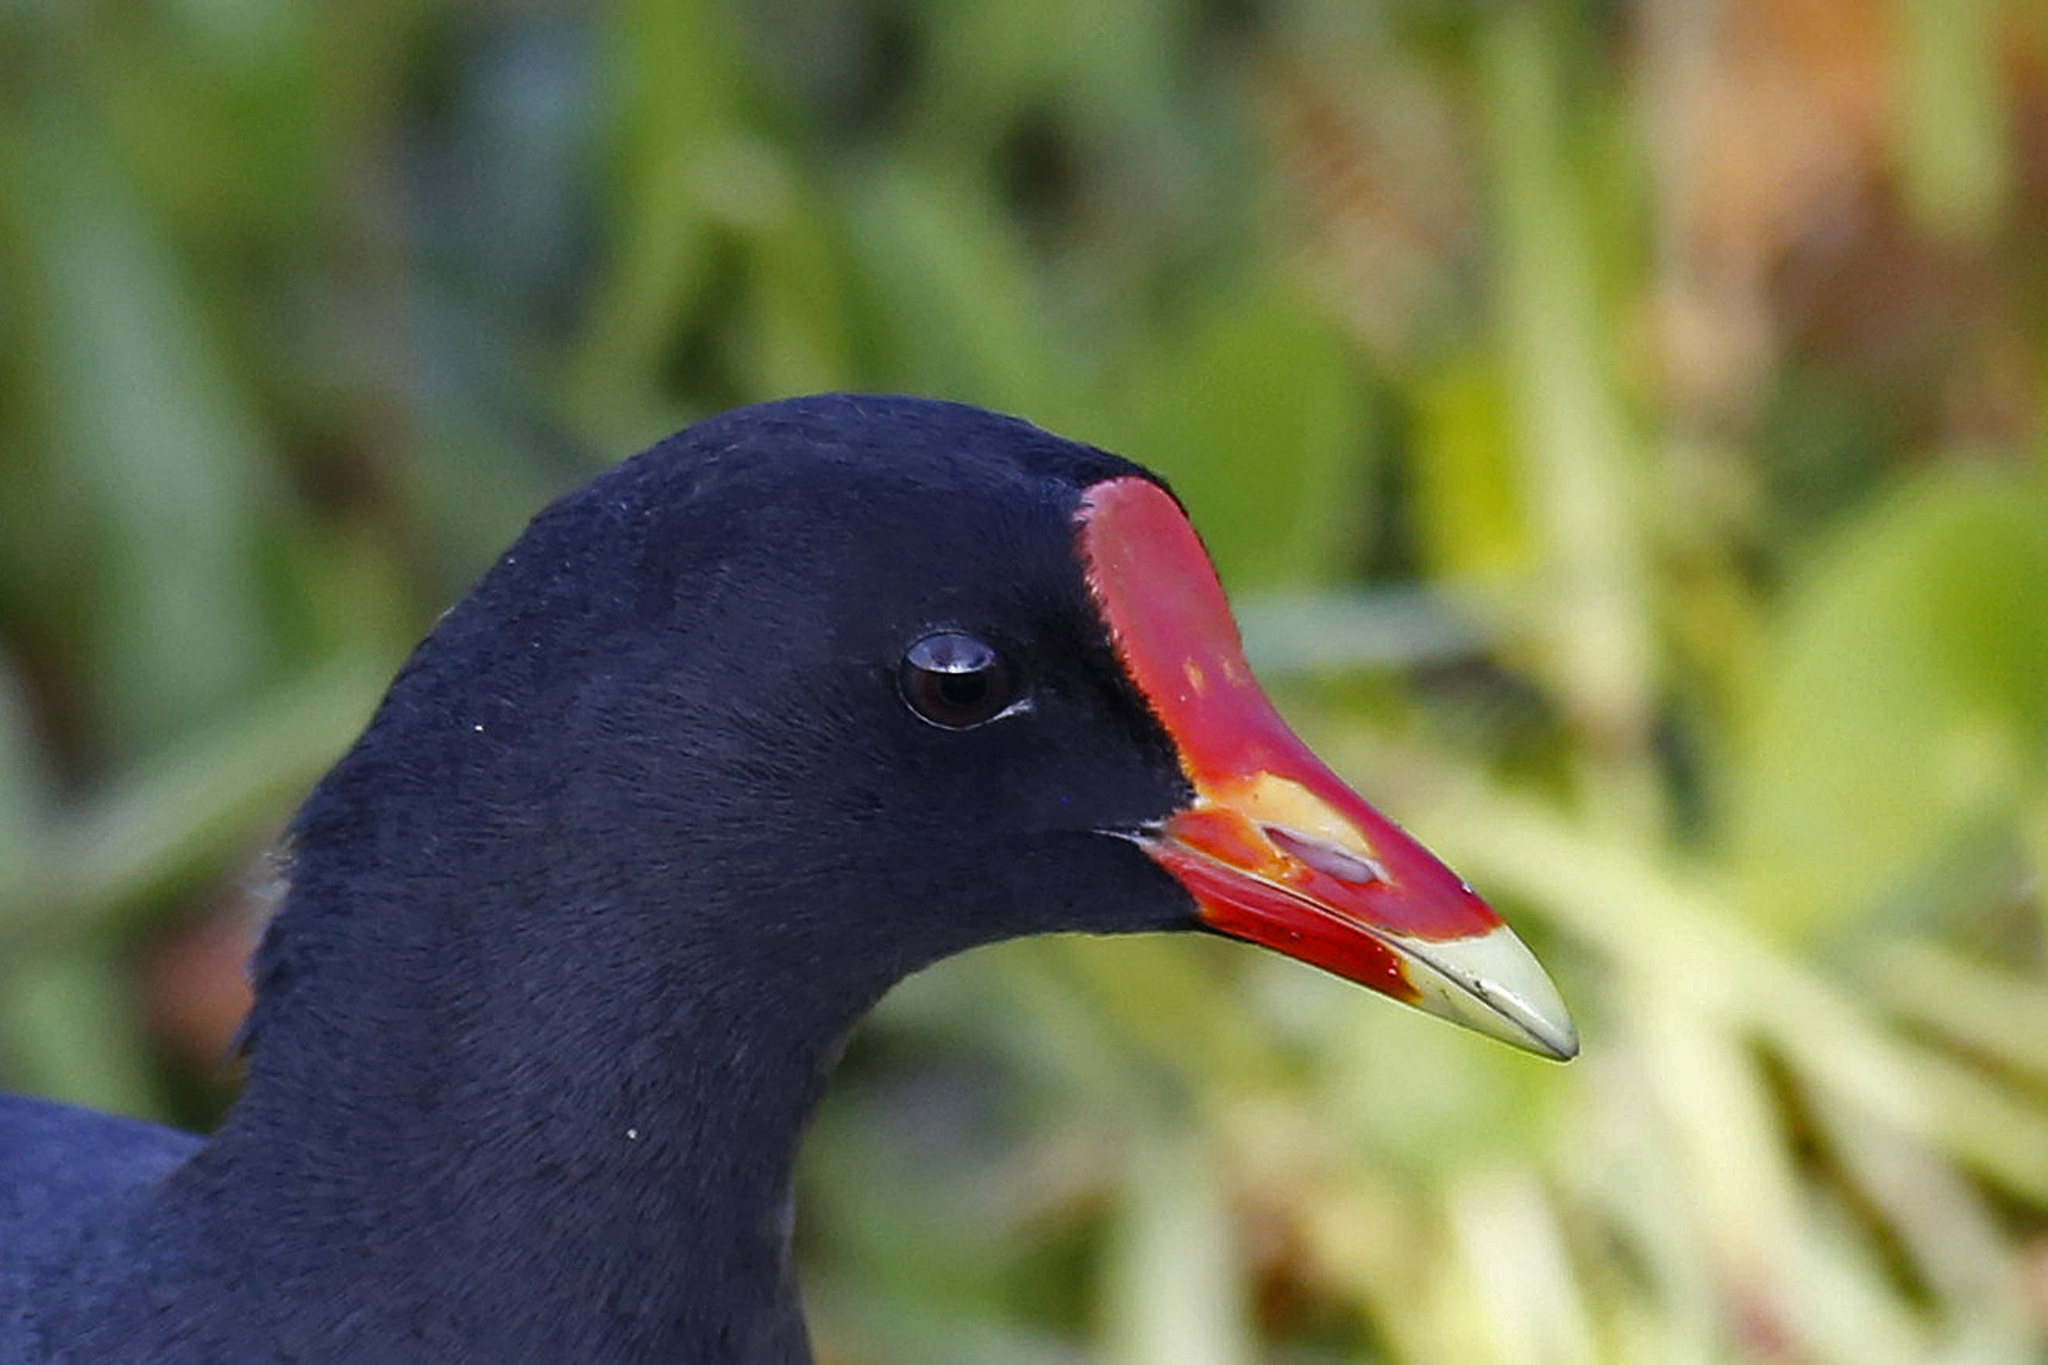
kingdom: Animalia
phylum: Chordata
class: Aves
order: Gruiformes
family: Rallidae
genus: Gallinula
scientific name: Gallinula chloropus
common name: Common moorhen
